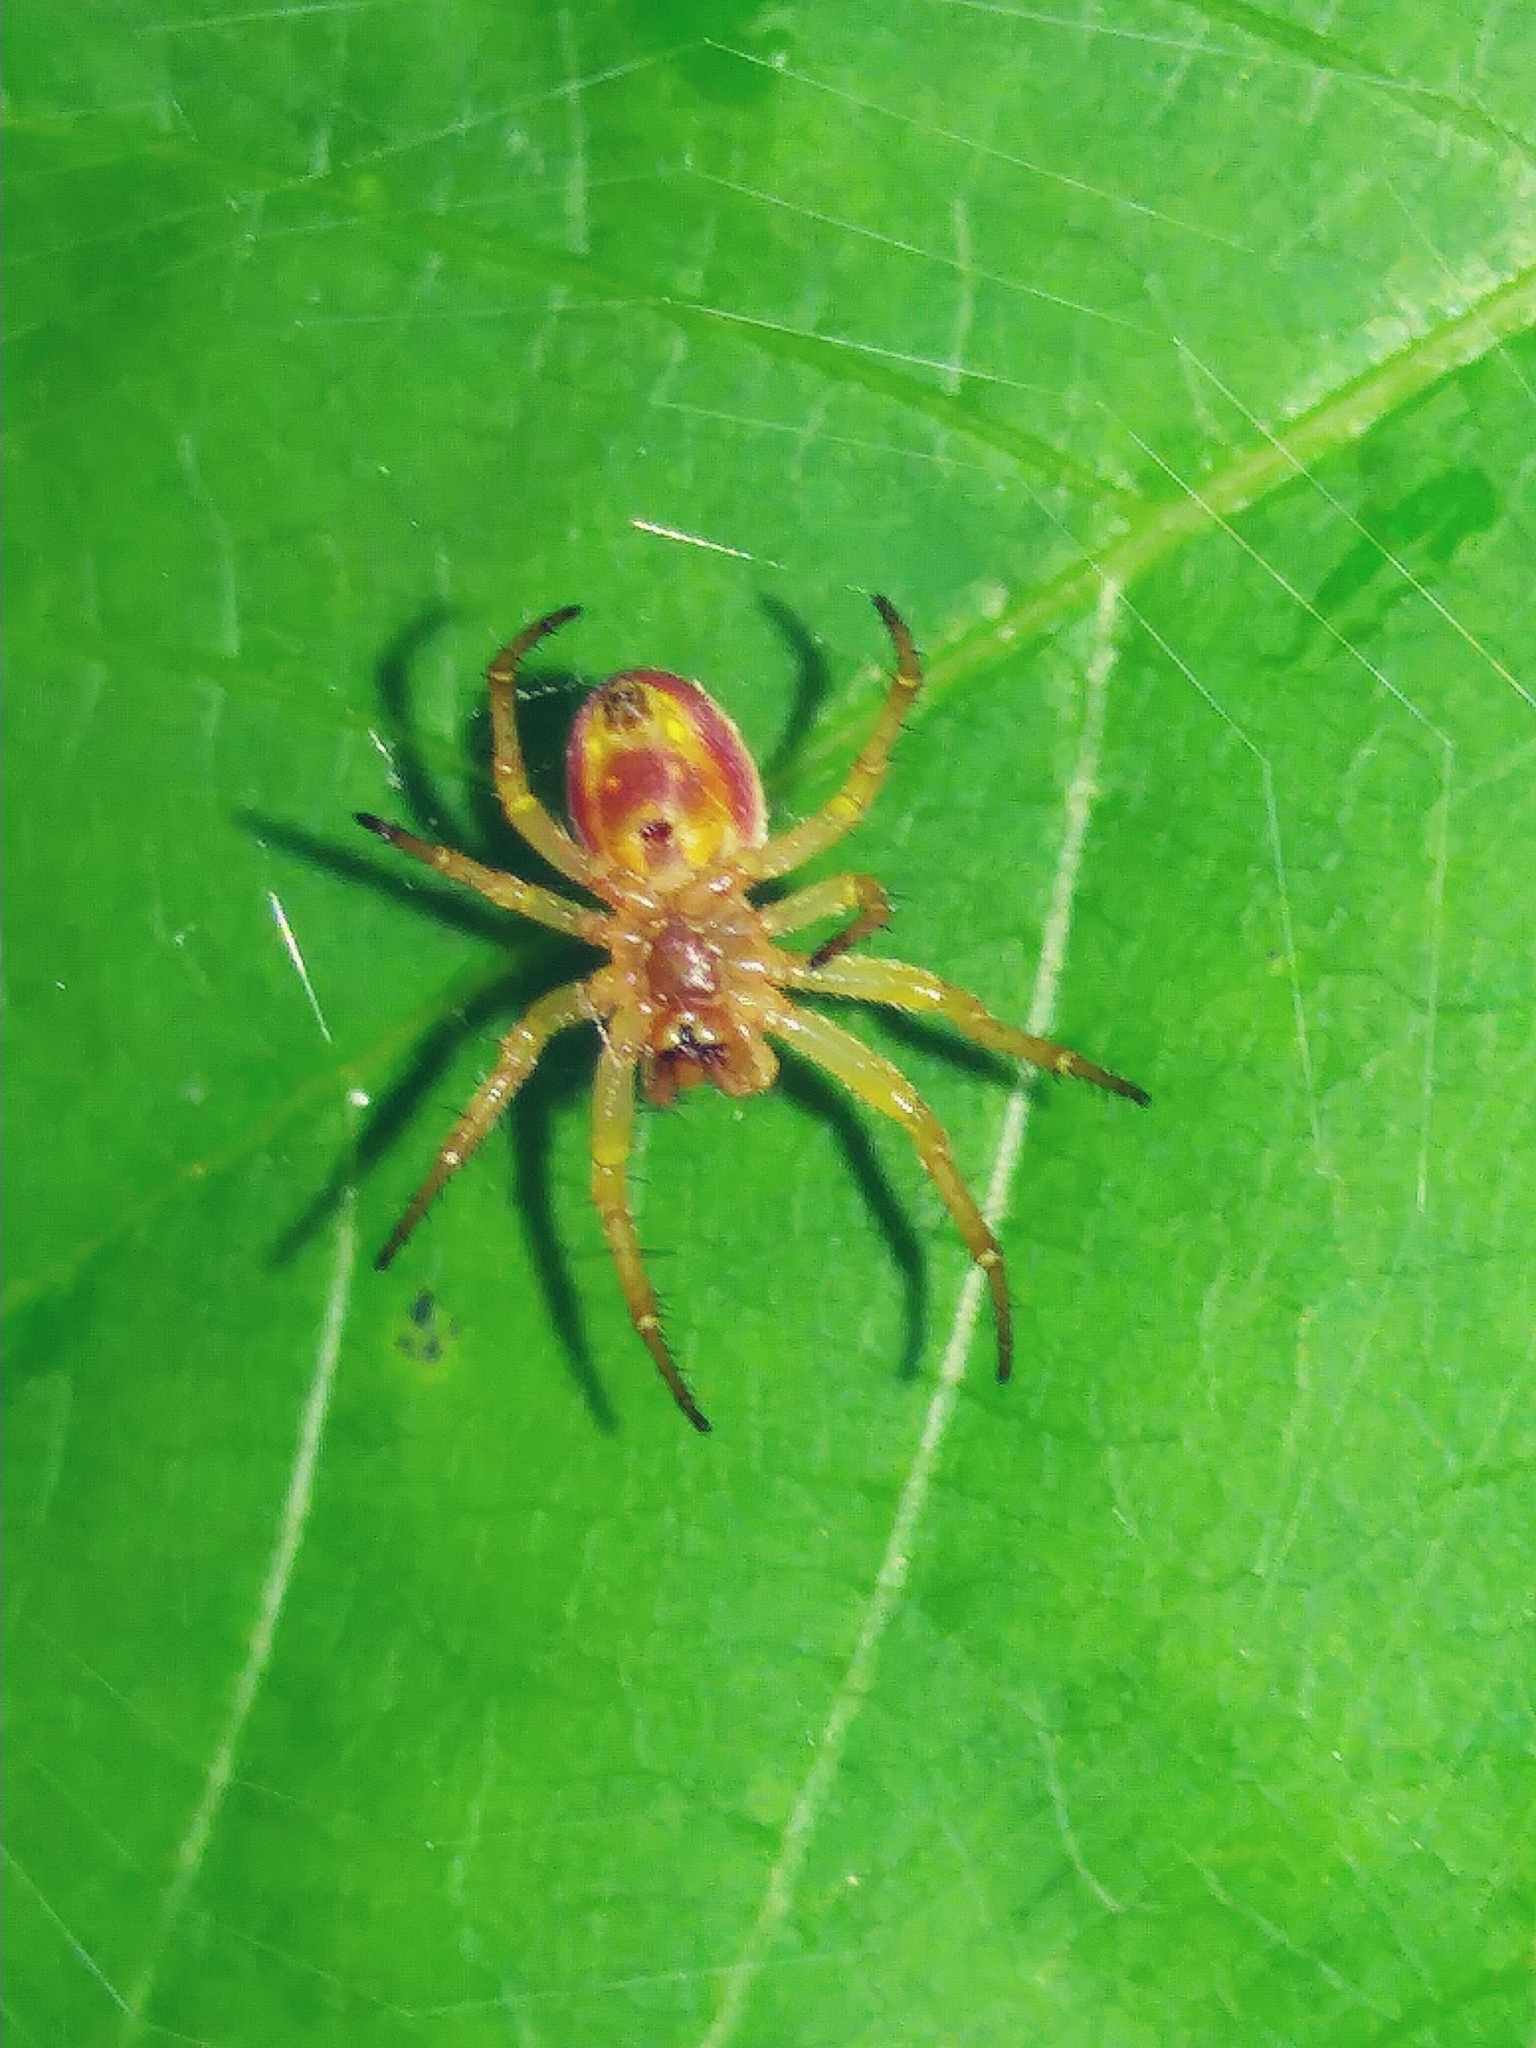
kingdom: Animalia
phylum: Arthropoda
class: Arachnida
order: Araneae
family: Araneidae
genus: Araniella
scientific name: Araniella displicata
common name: Sixspotted orb weaver
